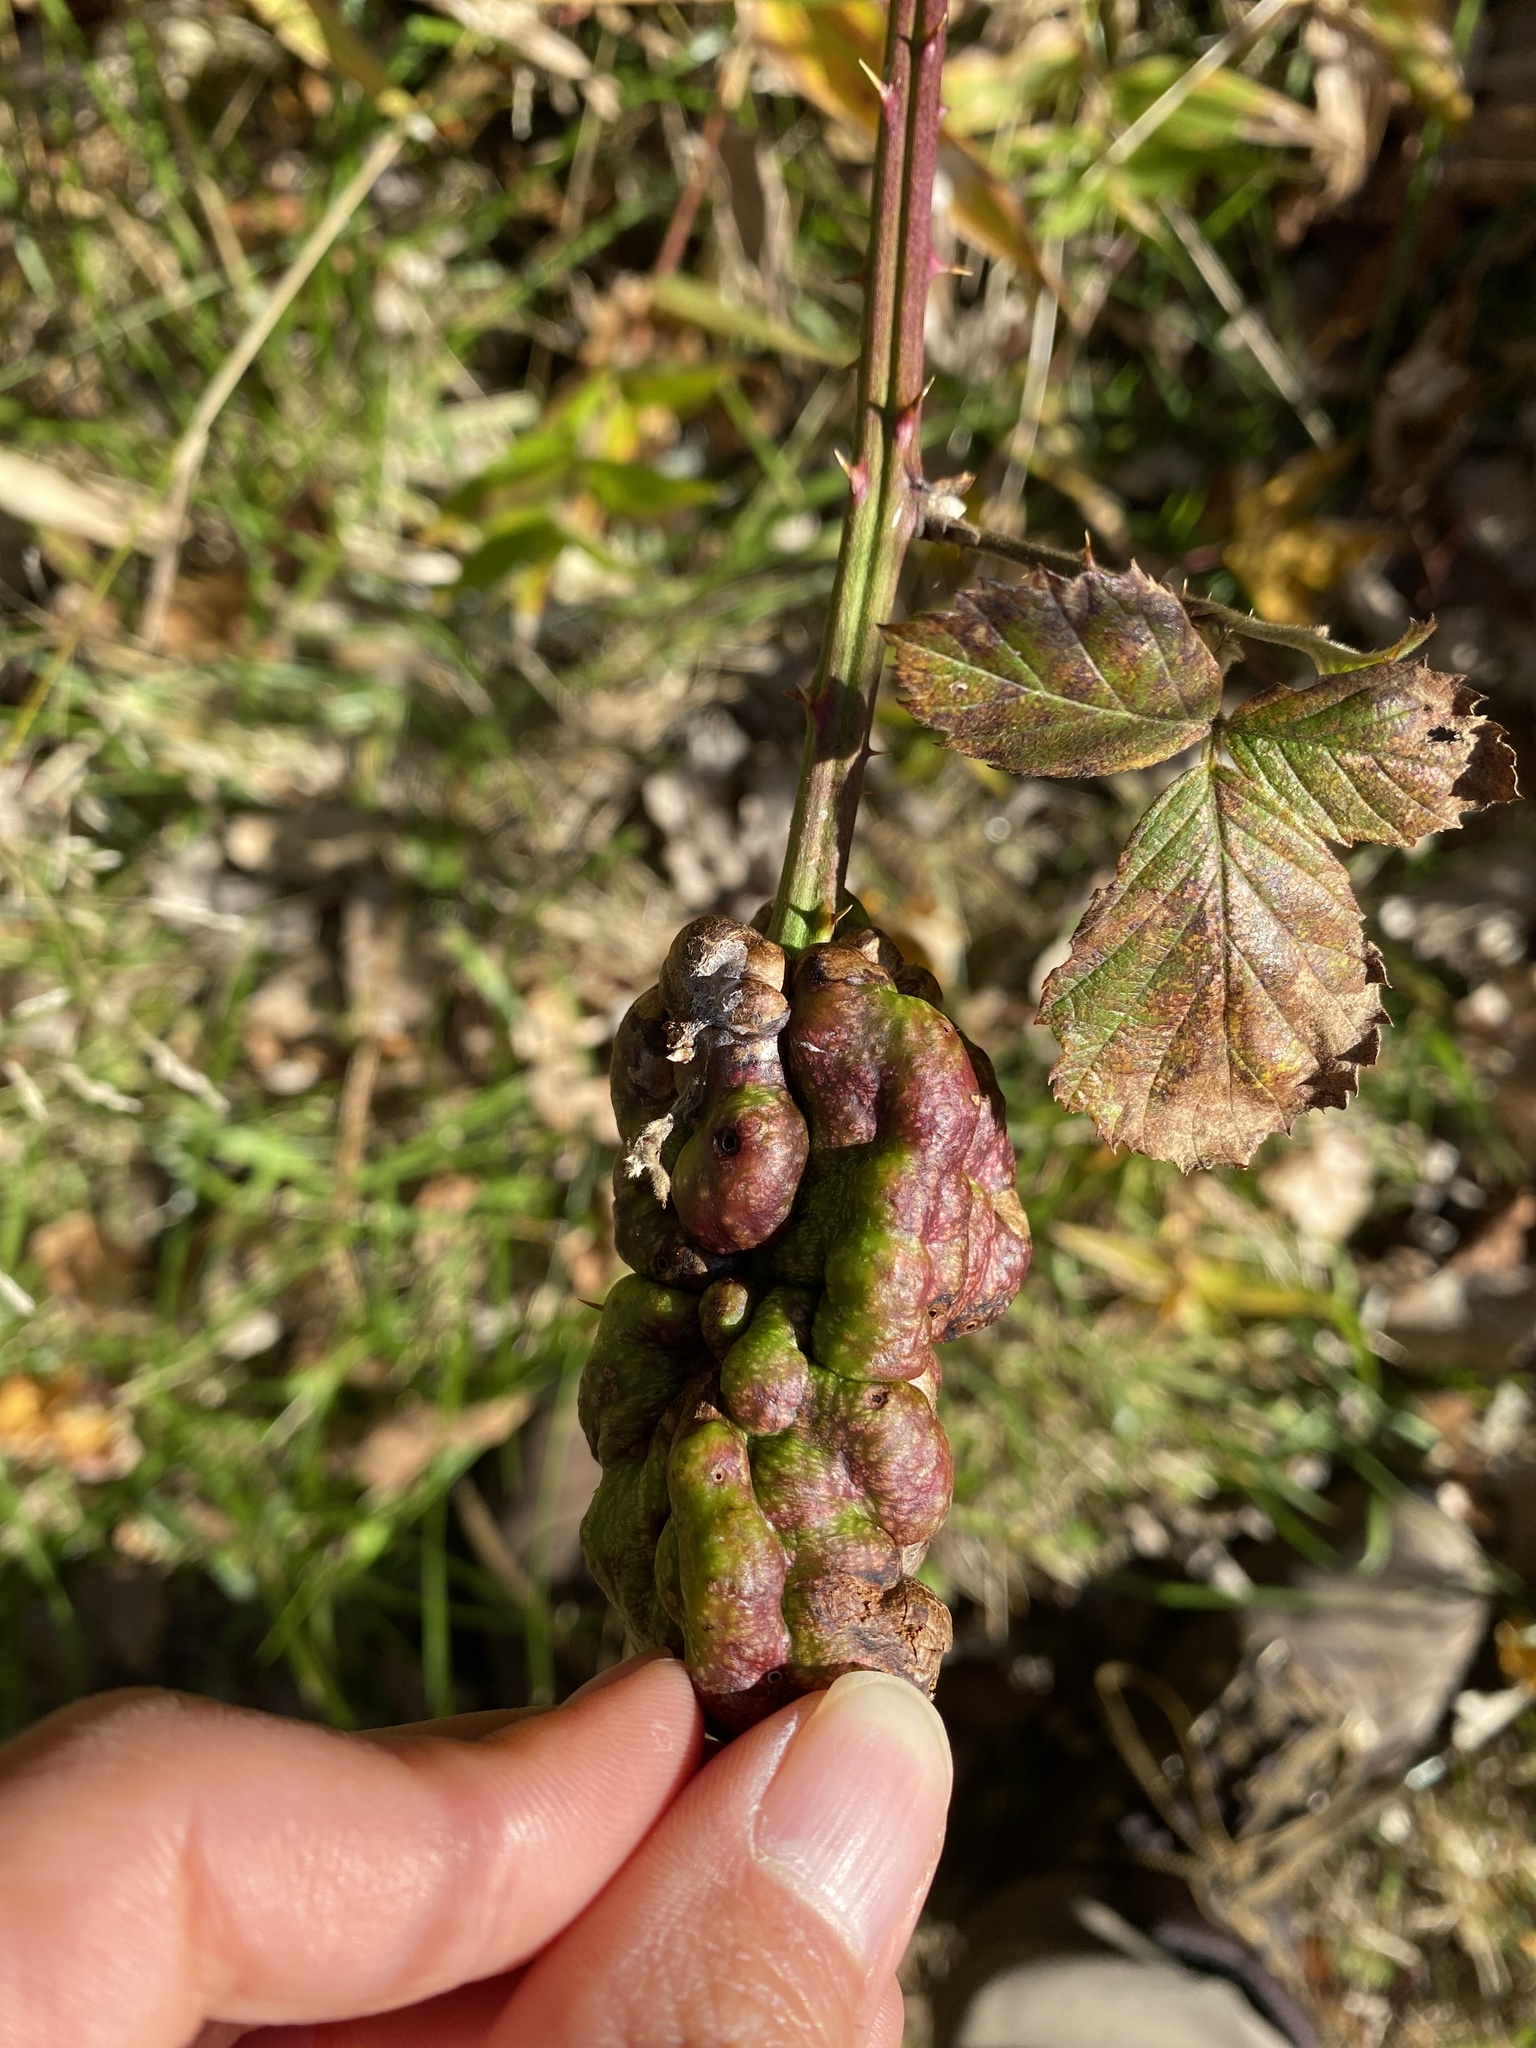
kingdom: Animalia
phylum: Arthropoda
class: Insecta
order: Hymenoptera
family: Cynipidae
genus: Diastrophus
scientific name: Diastrophus
